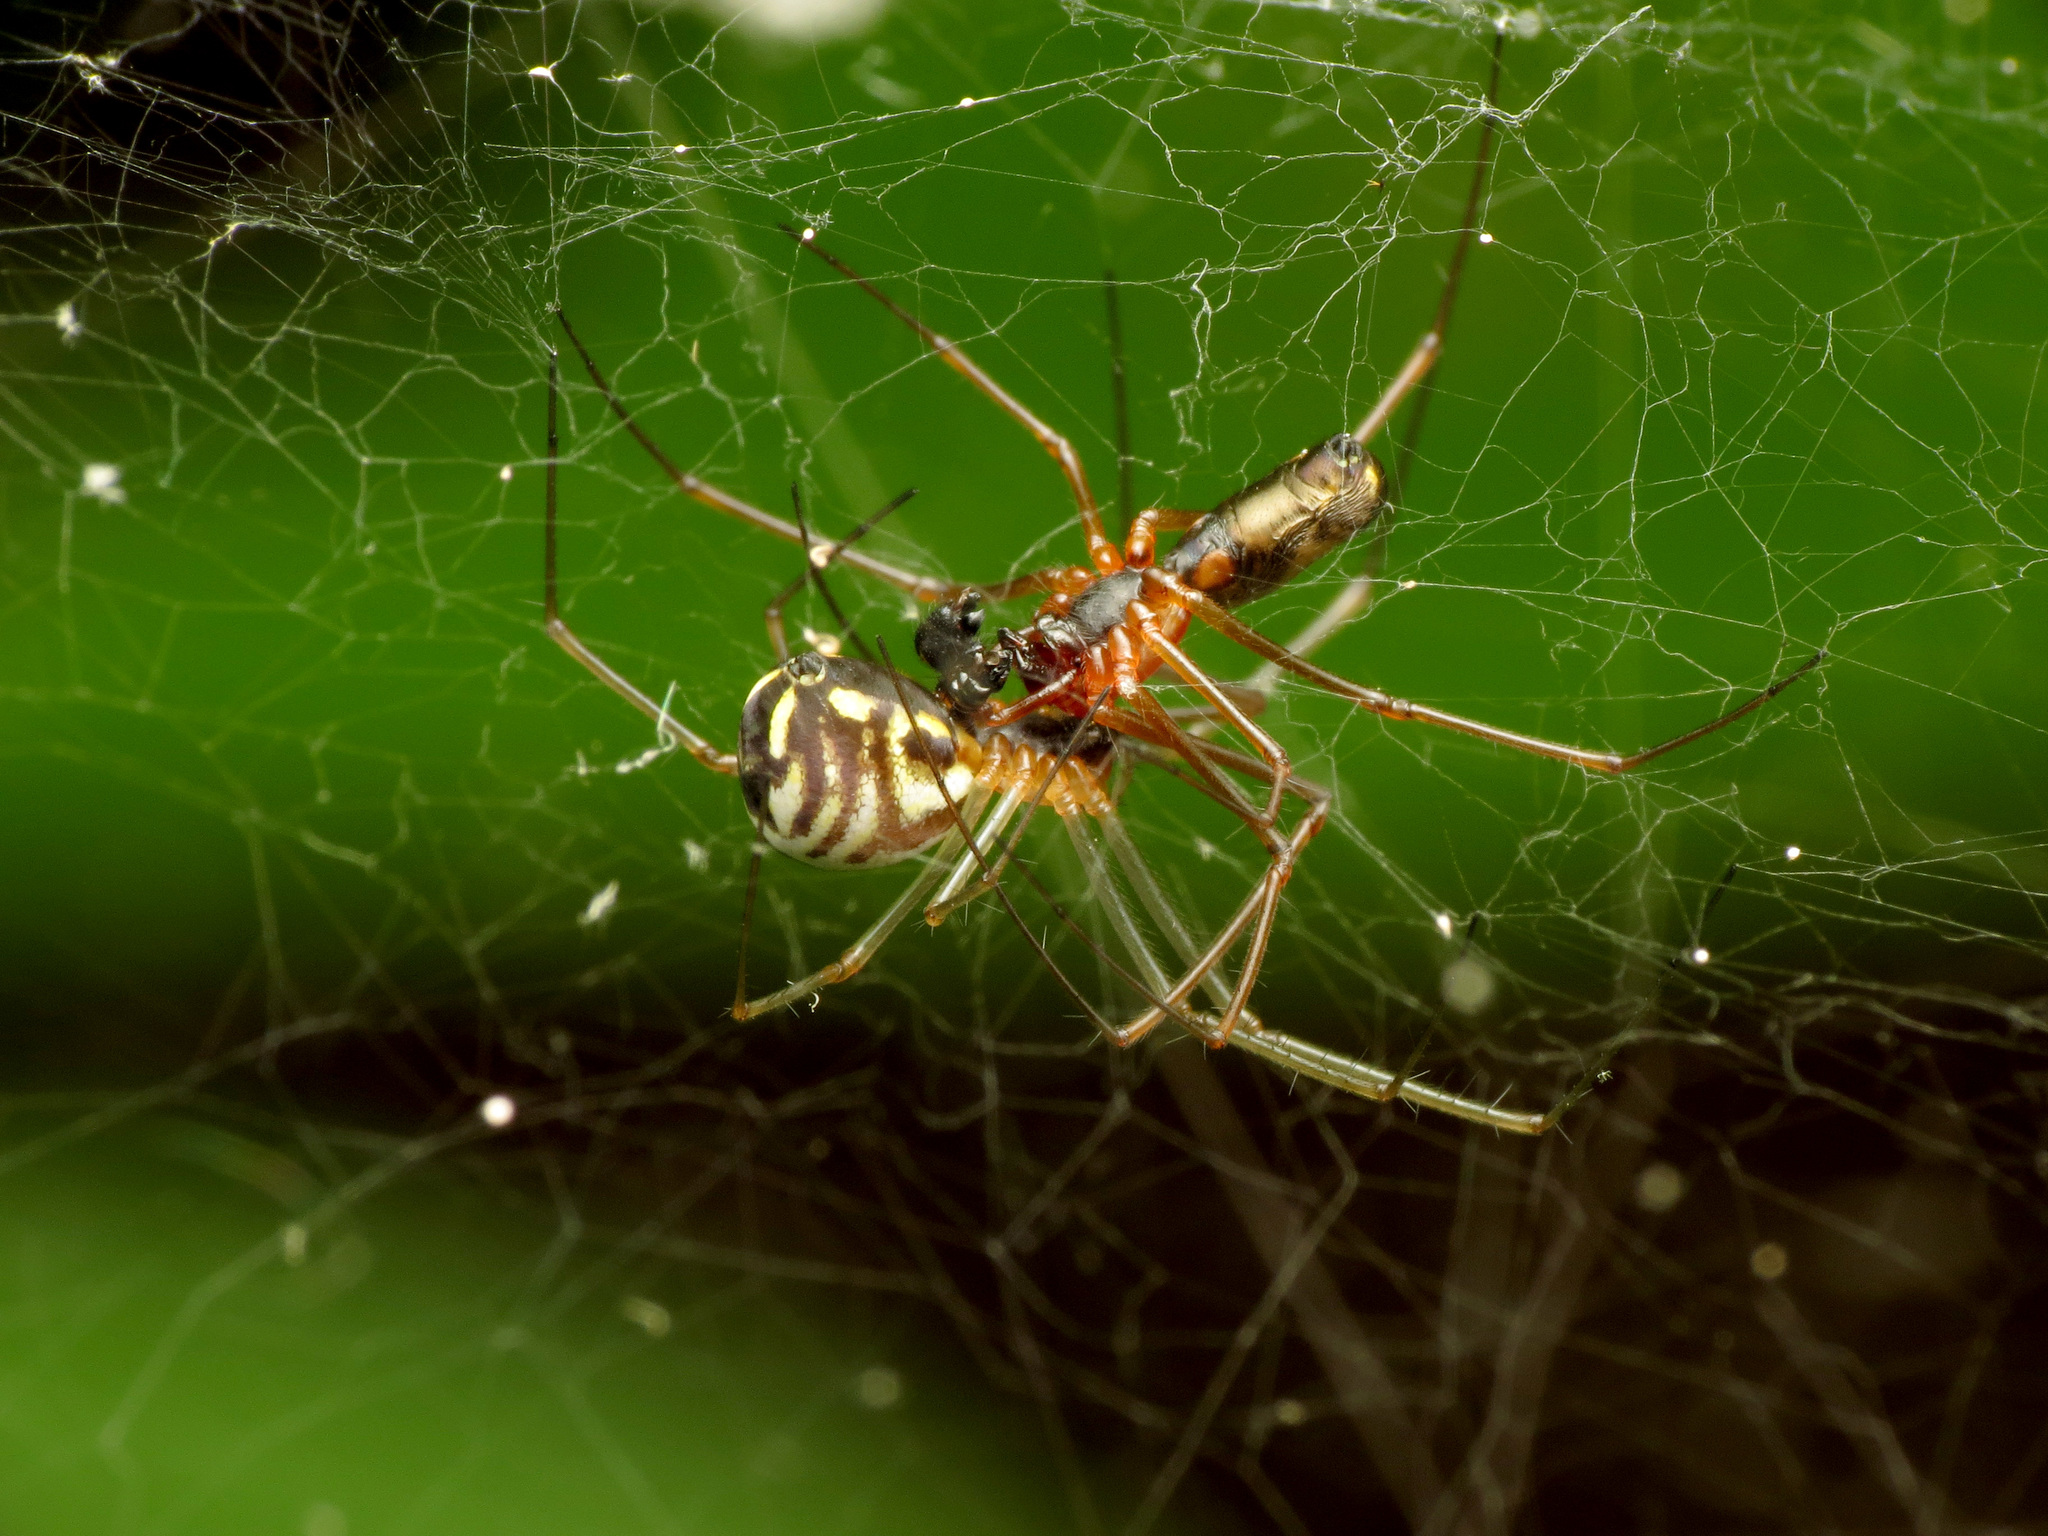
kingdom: Animalia
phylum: Arthropoda
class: Arachnida
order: Araneae
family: Linyphiidae
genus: Neriene
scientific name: Neriene radiata
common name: Filmy dome spider
